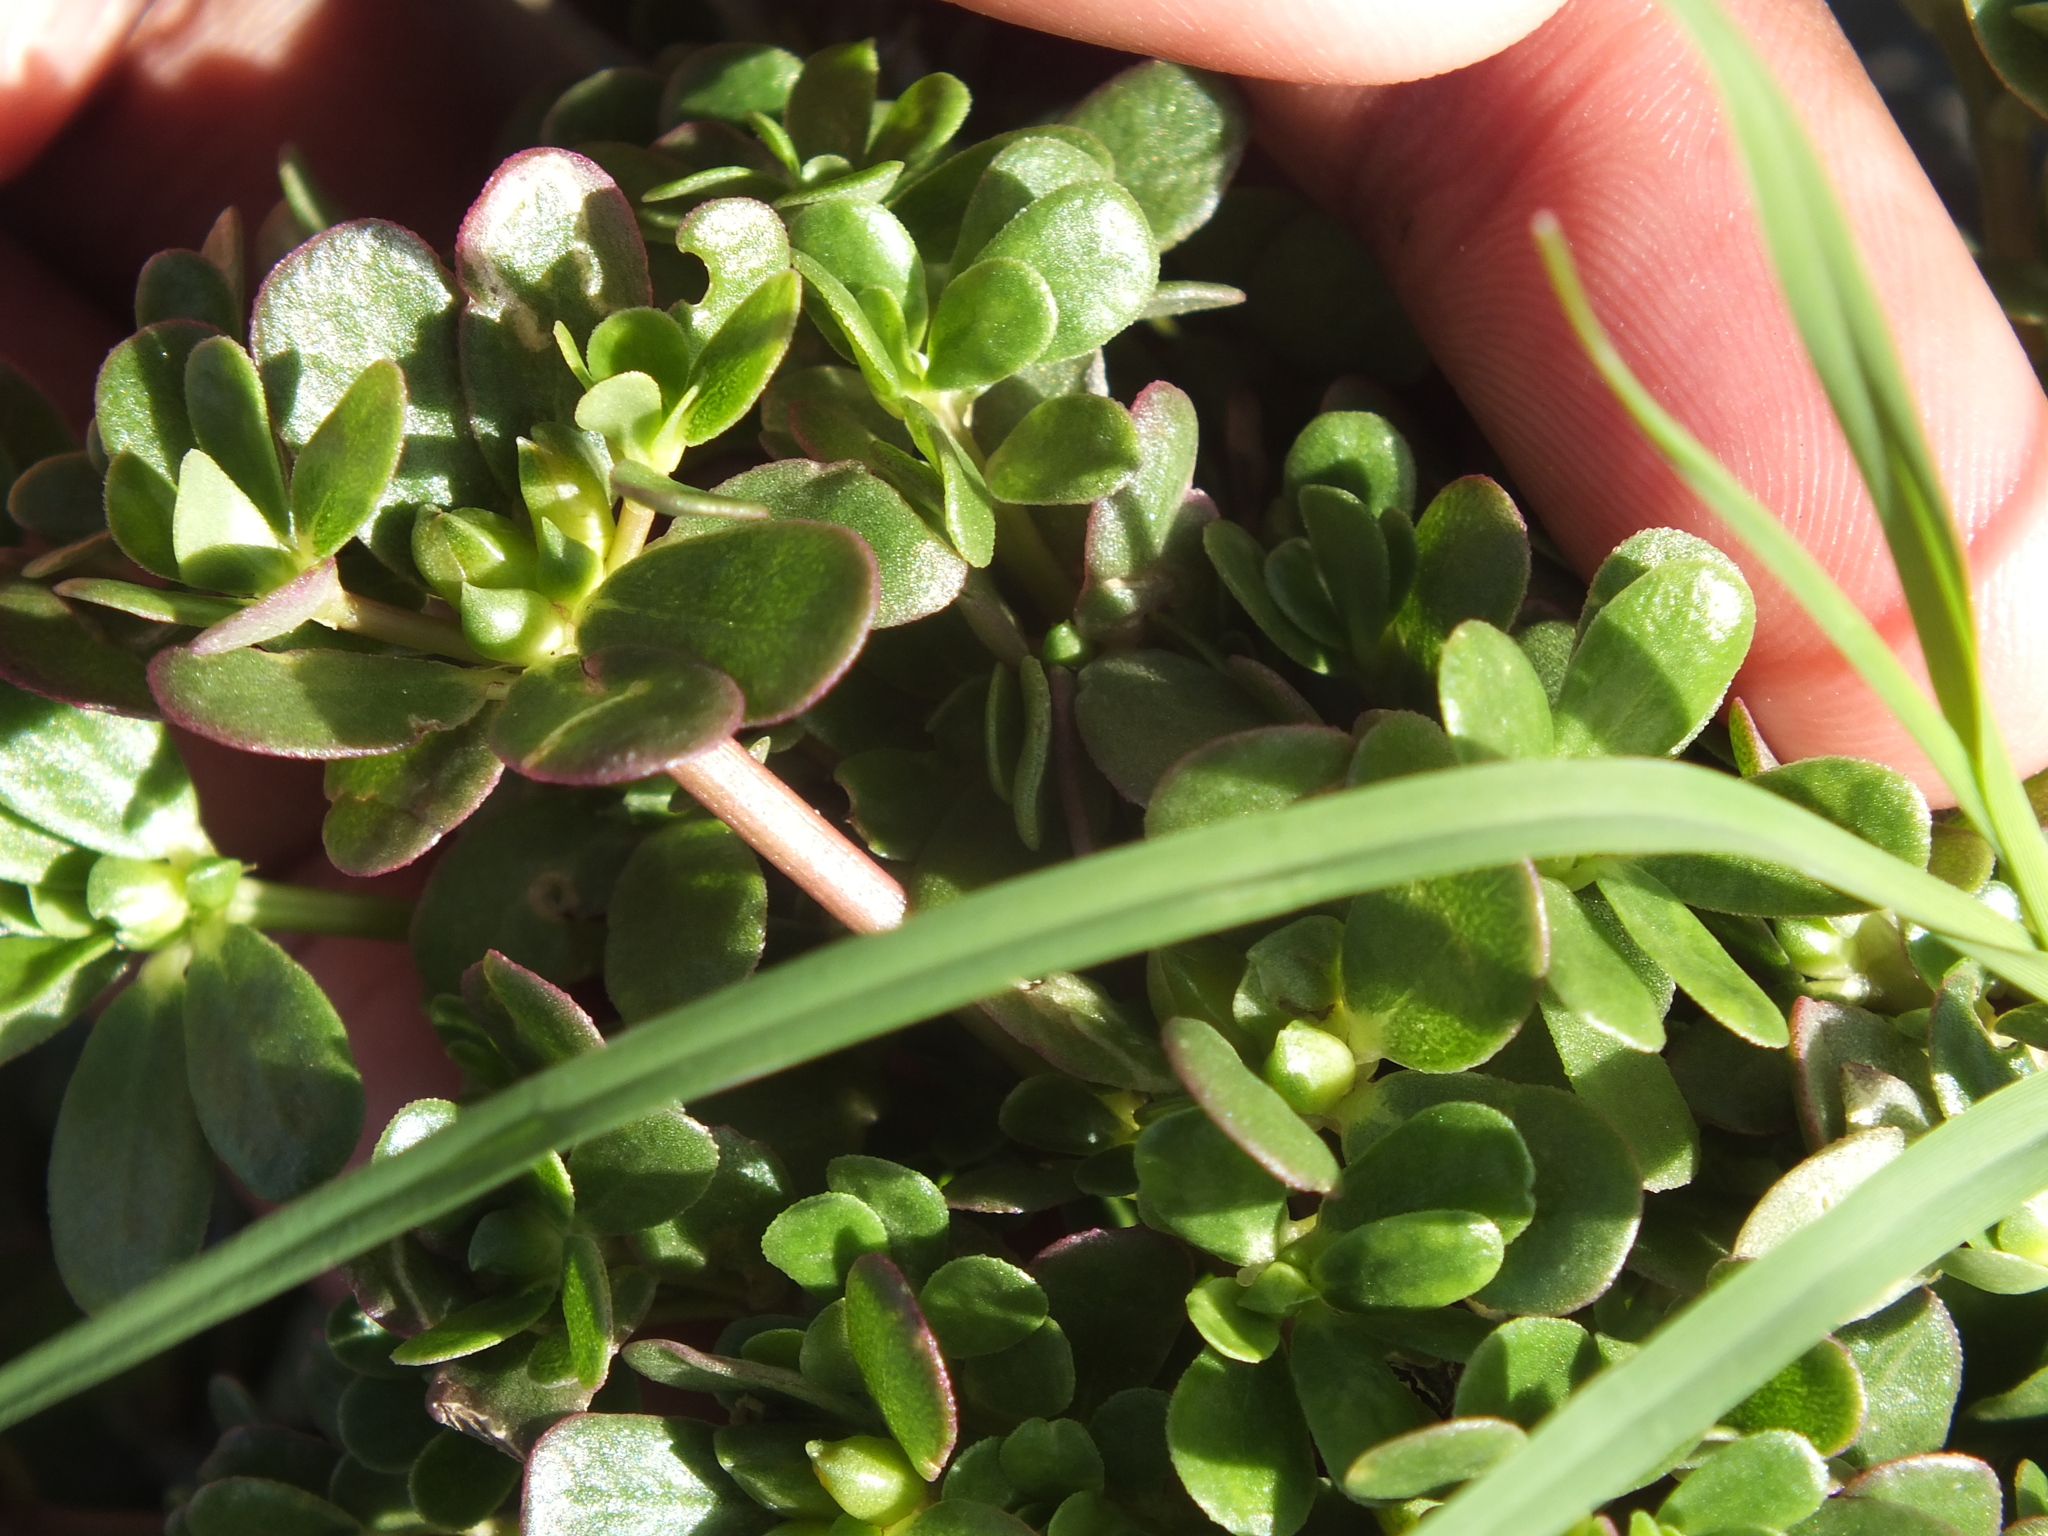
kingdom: Plantae
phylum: Tracheophyta
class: Magnoliopsida
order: Caryophyllales
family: Portulacaceae
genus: Portulaca
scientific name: Portulaca oleracea
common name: Common purslane
